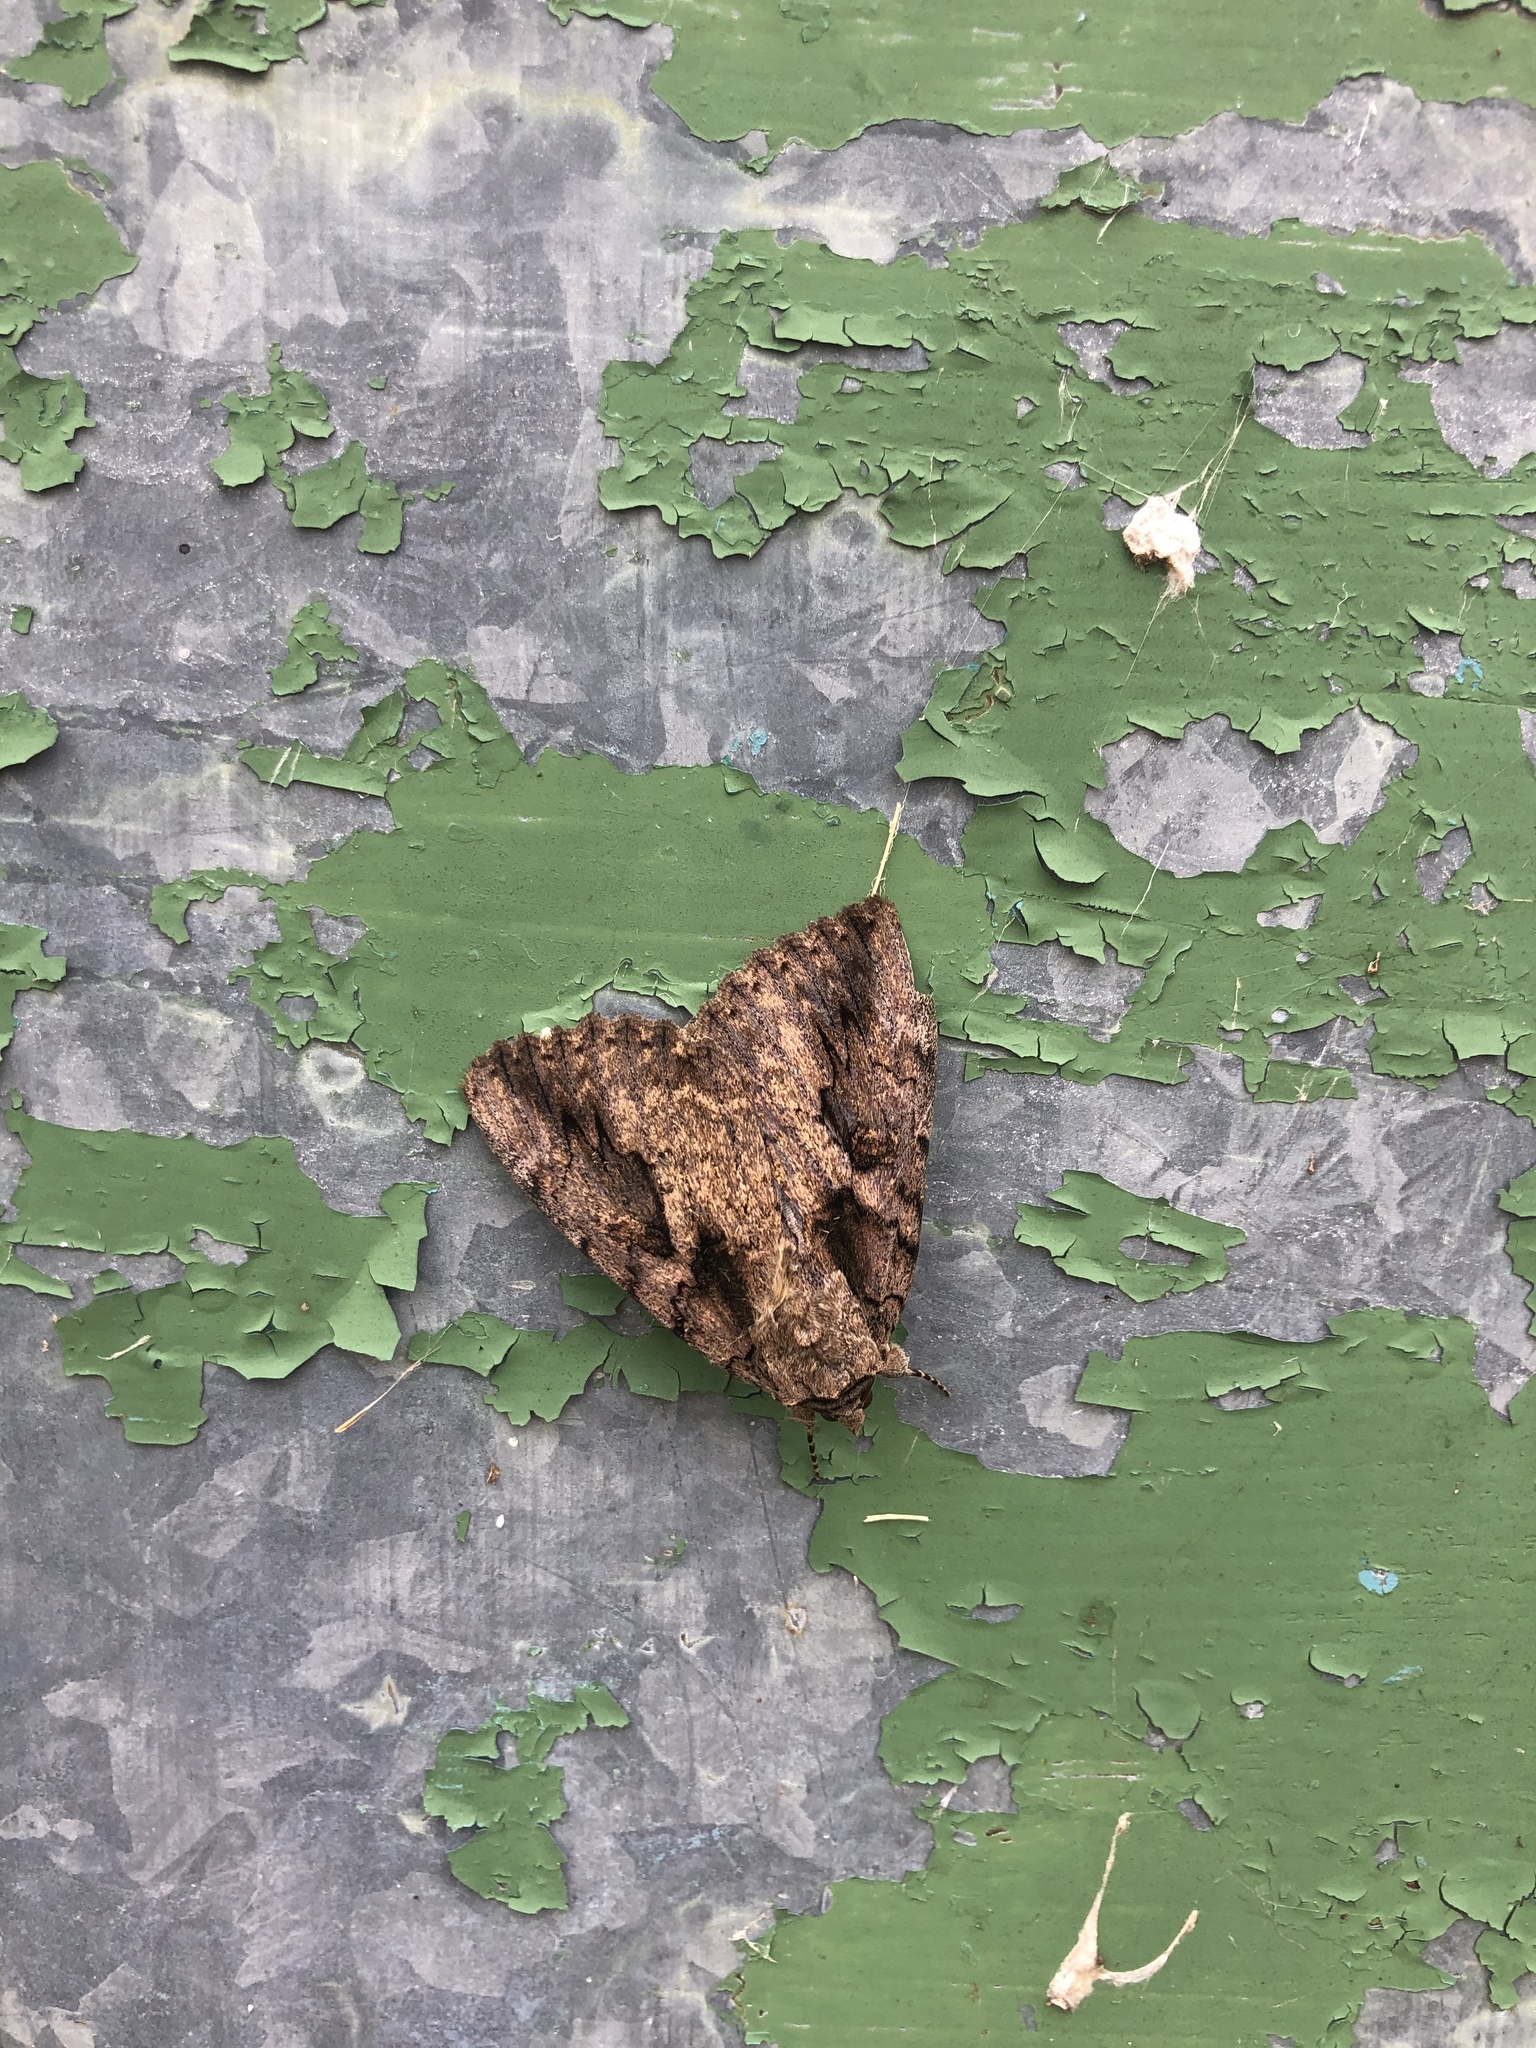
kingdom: Animalia
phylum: Arthropoda
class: Insecta
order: Lepidoptera
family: Erebidae
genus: Catocala
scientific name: Catocala amatrix
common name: Sweetheart underwing
